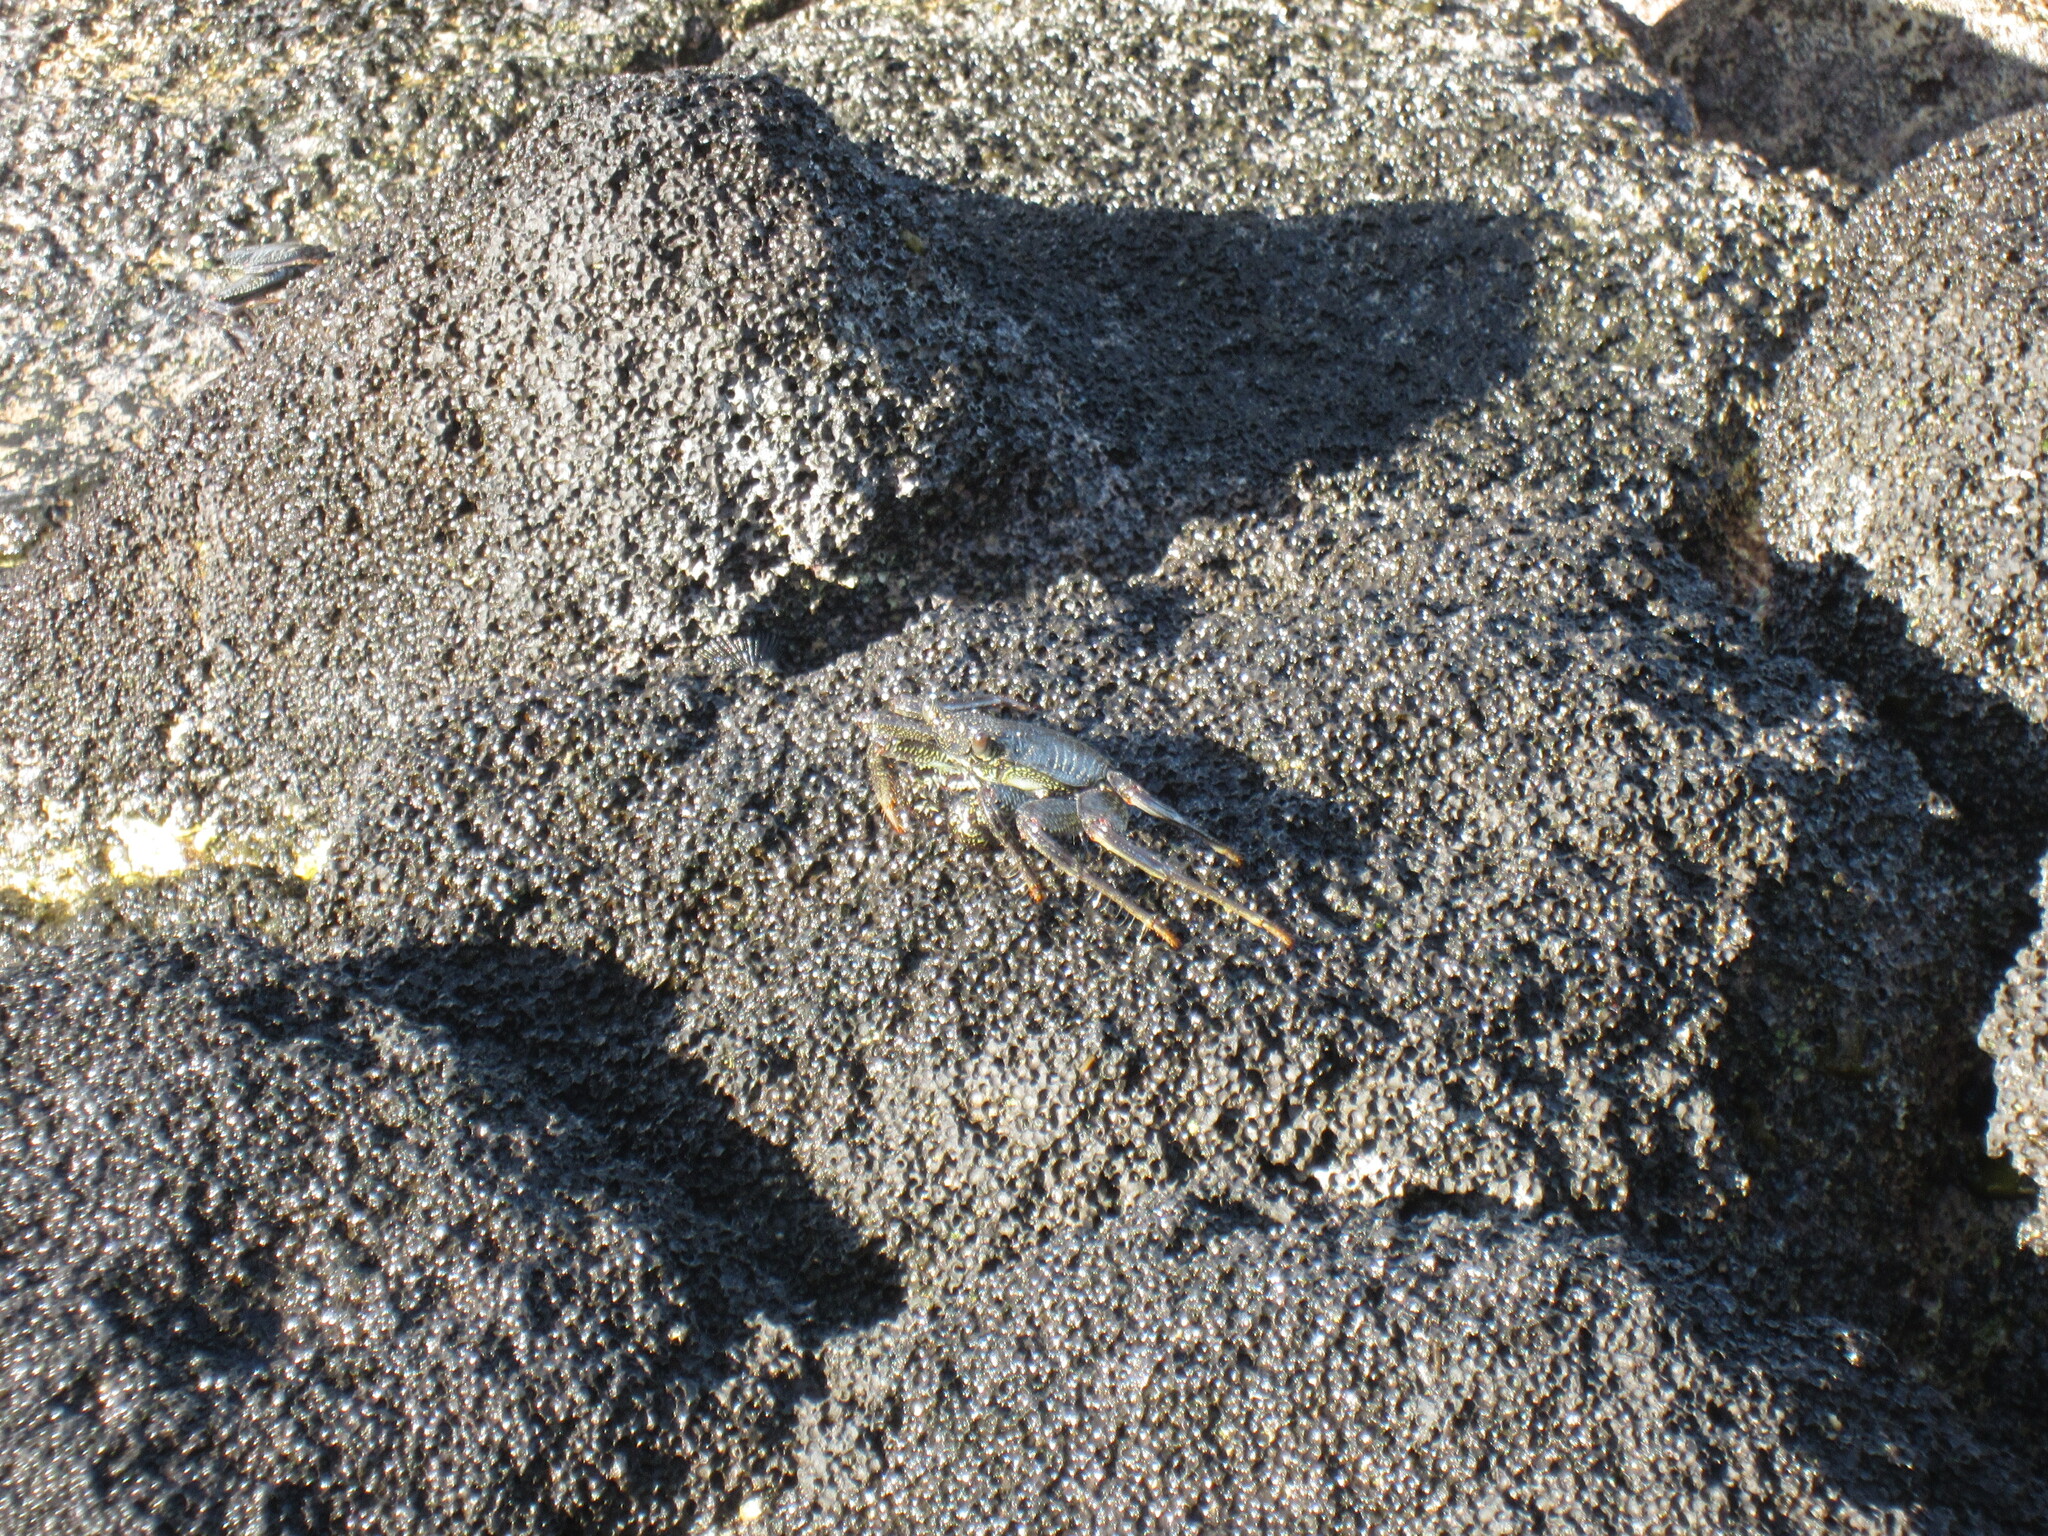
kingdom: Animalia
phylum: Arthropoda
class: Malacostraca
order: Decapoda
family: Grapsidae
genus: Grapsus
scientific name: Grapsus tenuicrustatus
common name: Natal lightfoot crab
